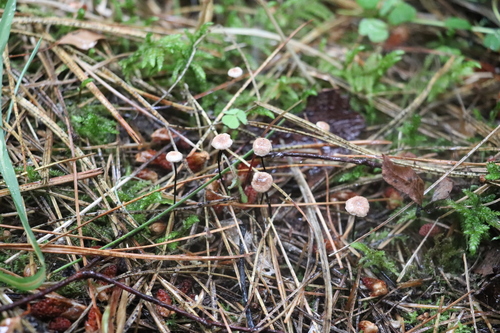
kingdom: Fungi
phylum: Basidiomycota
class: Agaricomycetes
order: Agaricales
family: Omphalotaceae
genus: Gymnopus
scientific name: Gymnopus androsaceus
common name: Horse-hair fungus
